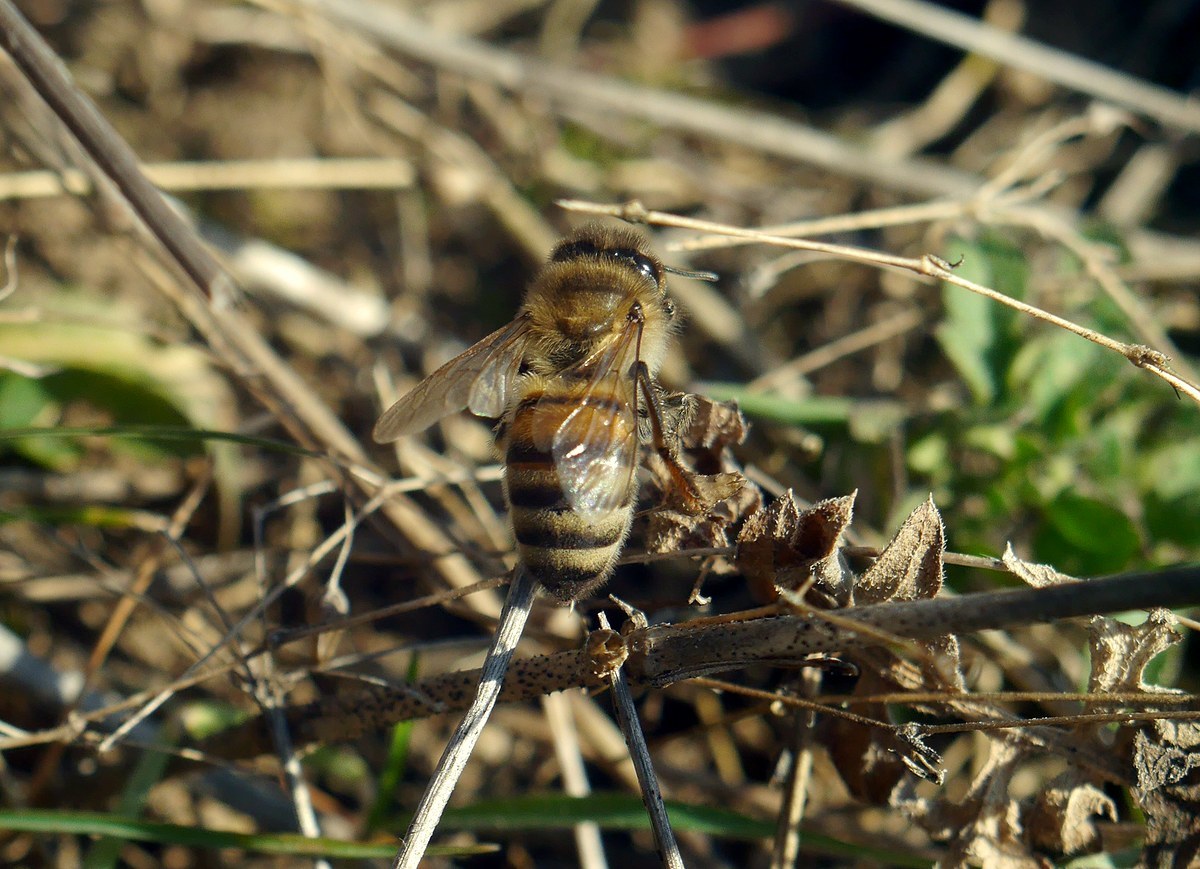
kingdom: Animalia
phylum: Arthropoda
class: Insecta
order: Hymenoptera
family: Apidae
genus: Apis
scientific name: Apis mellifera
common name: Honey bee
